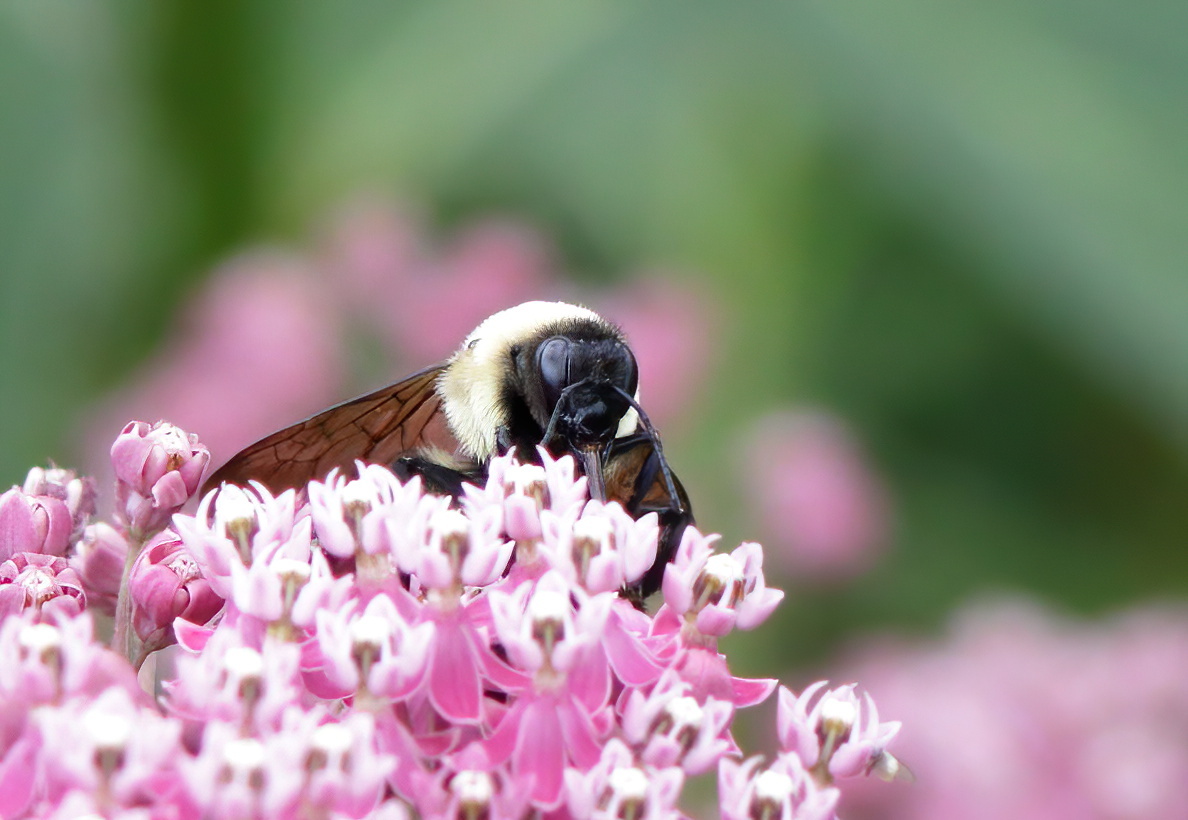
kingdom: Animalia
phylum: Arthropoda
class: Insecta
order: Hymenoptera
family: Apidae
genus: Bombus
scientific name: Bombus griseocollis
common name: Brown-belted bumble bee
